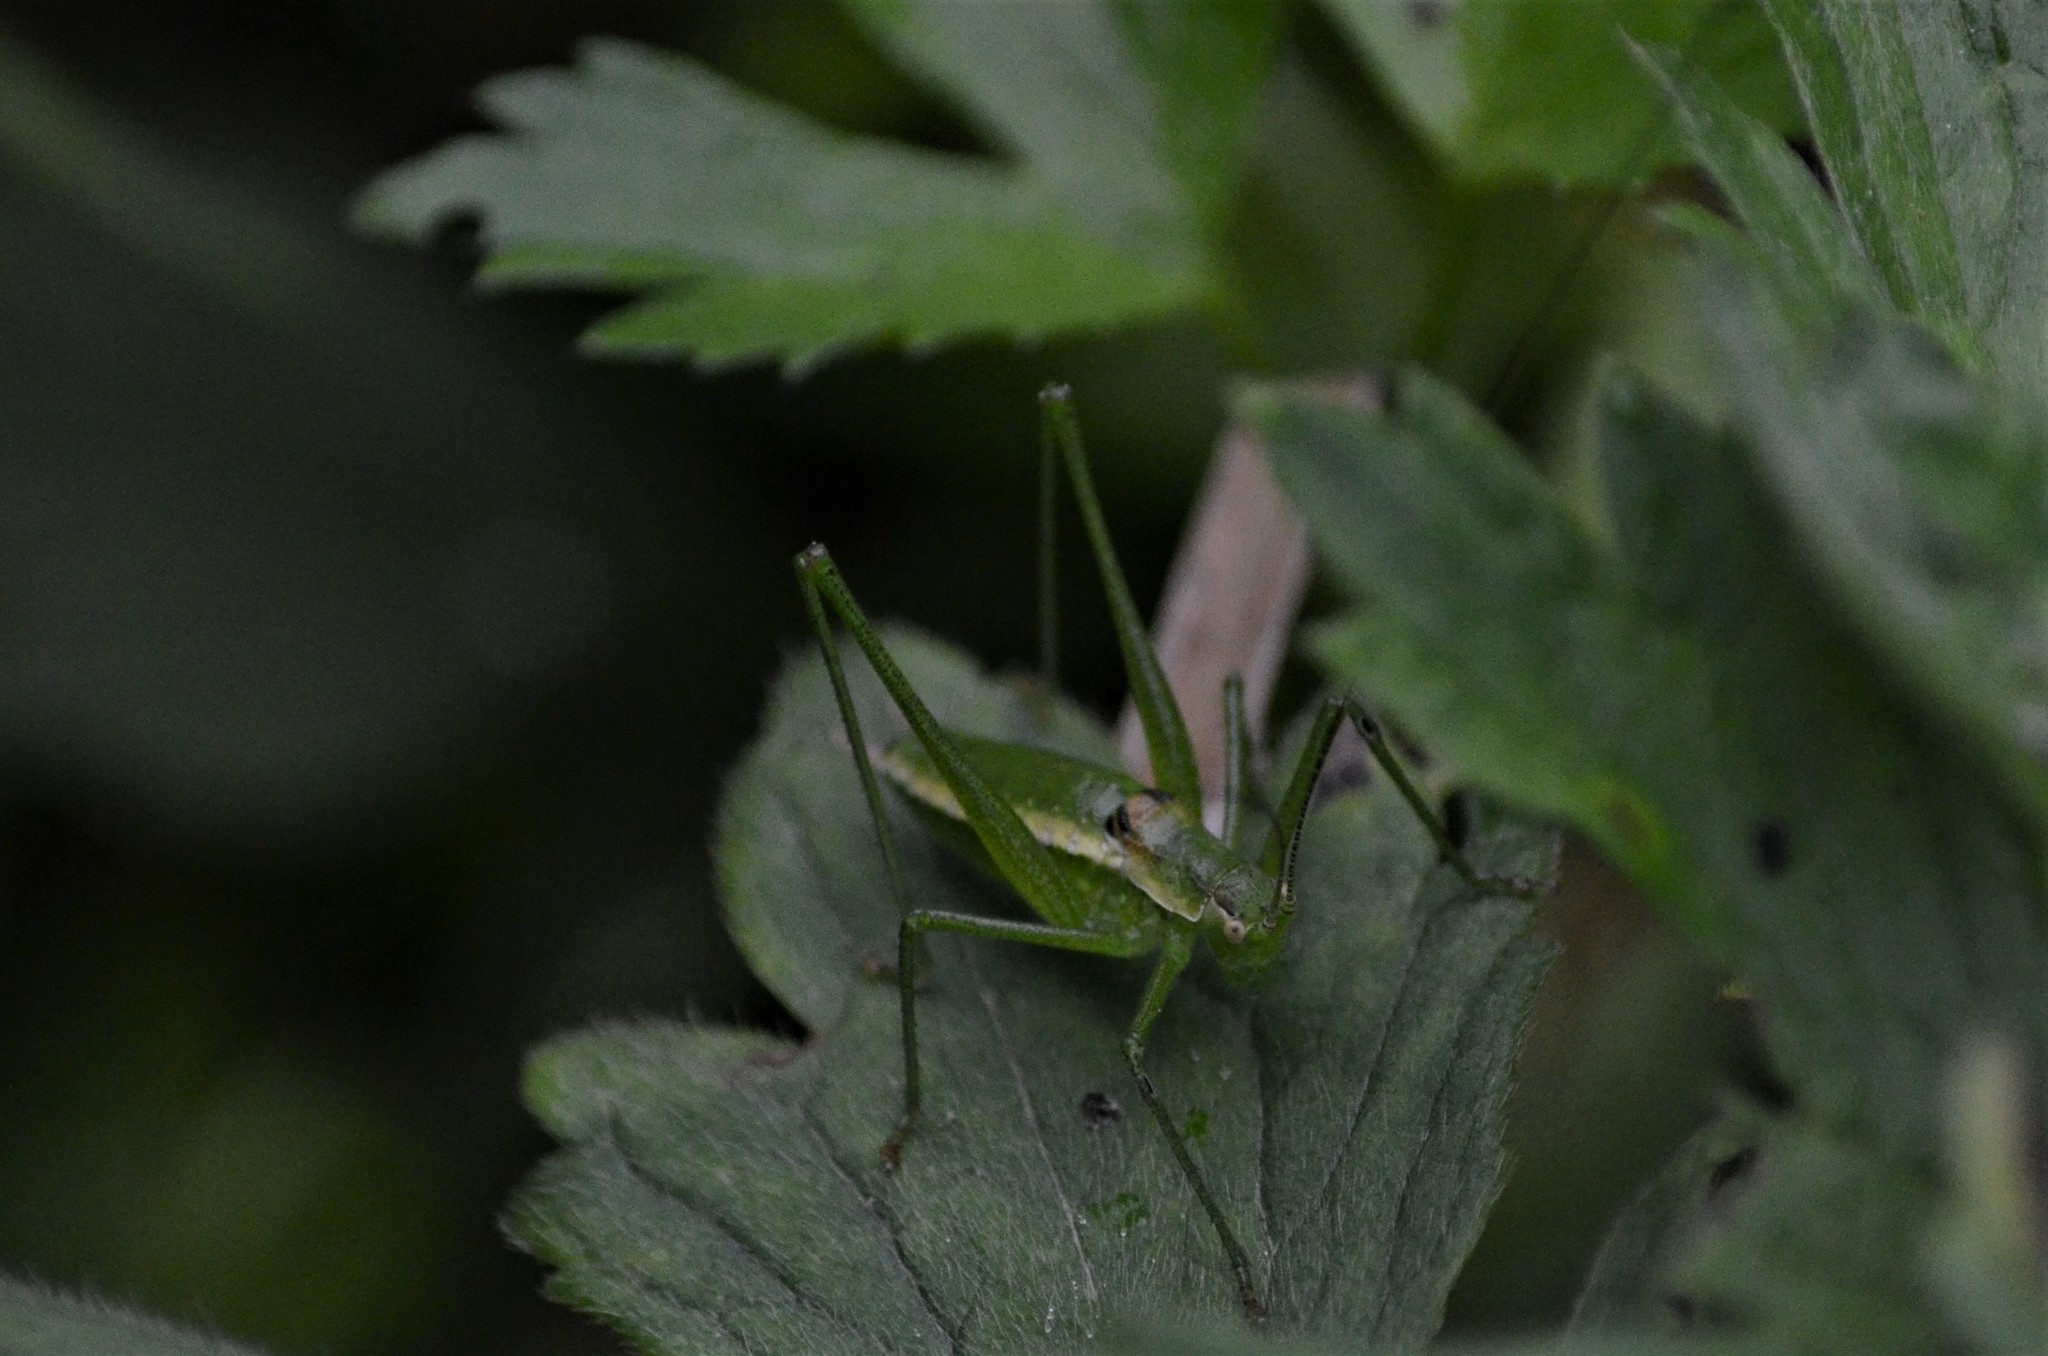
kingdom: Animalia
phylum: Arthropoda
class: Insecta
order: Orthoptera
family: Tettigoniidae
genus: Leptophyes
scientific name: Leptophyes boscii
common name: Balkan speckled bush-cricket
